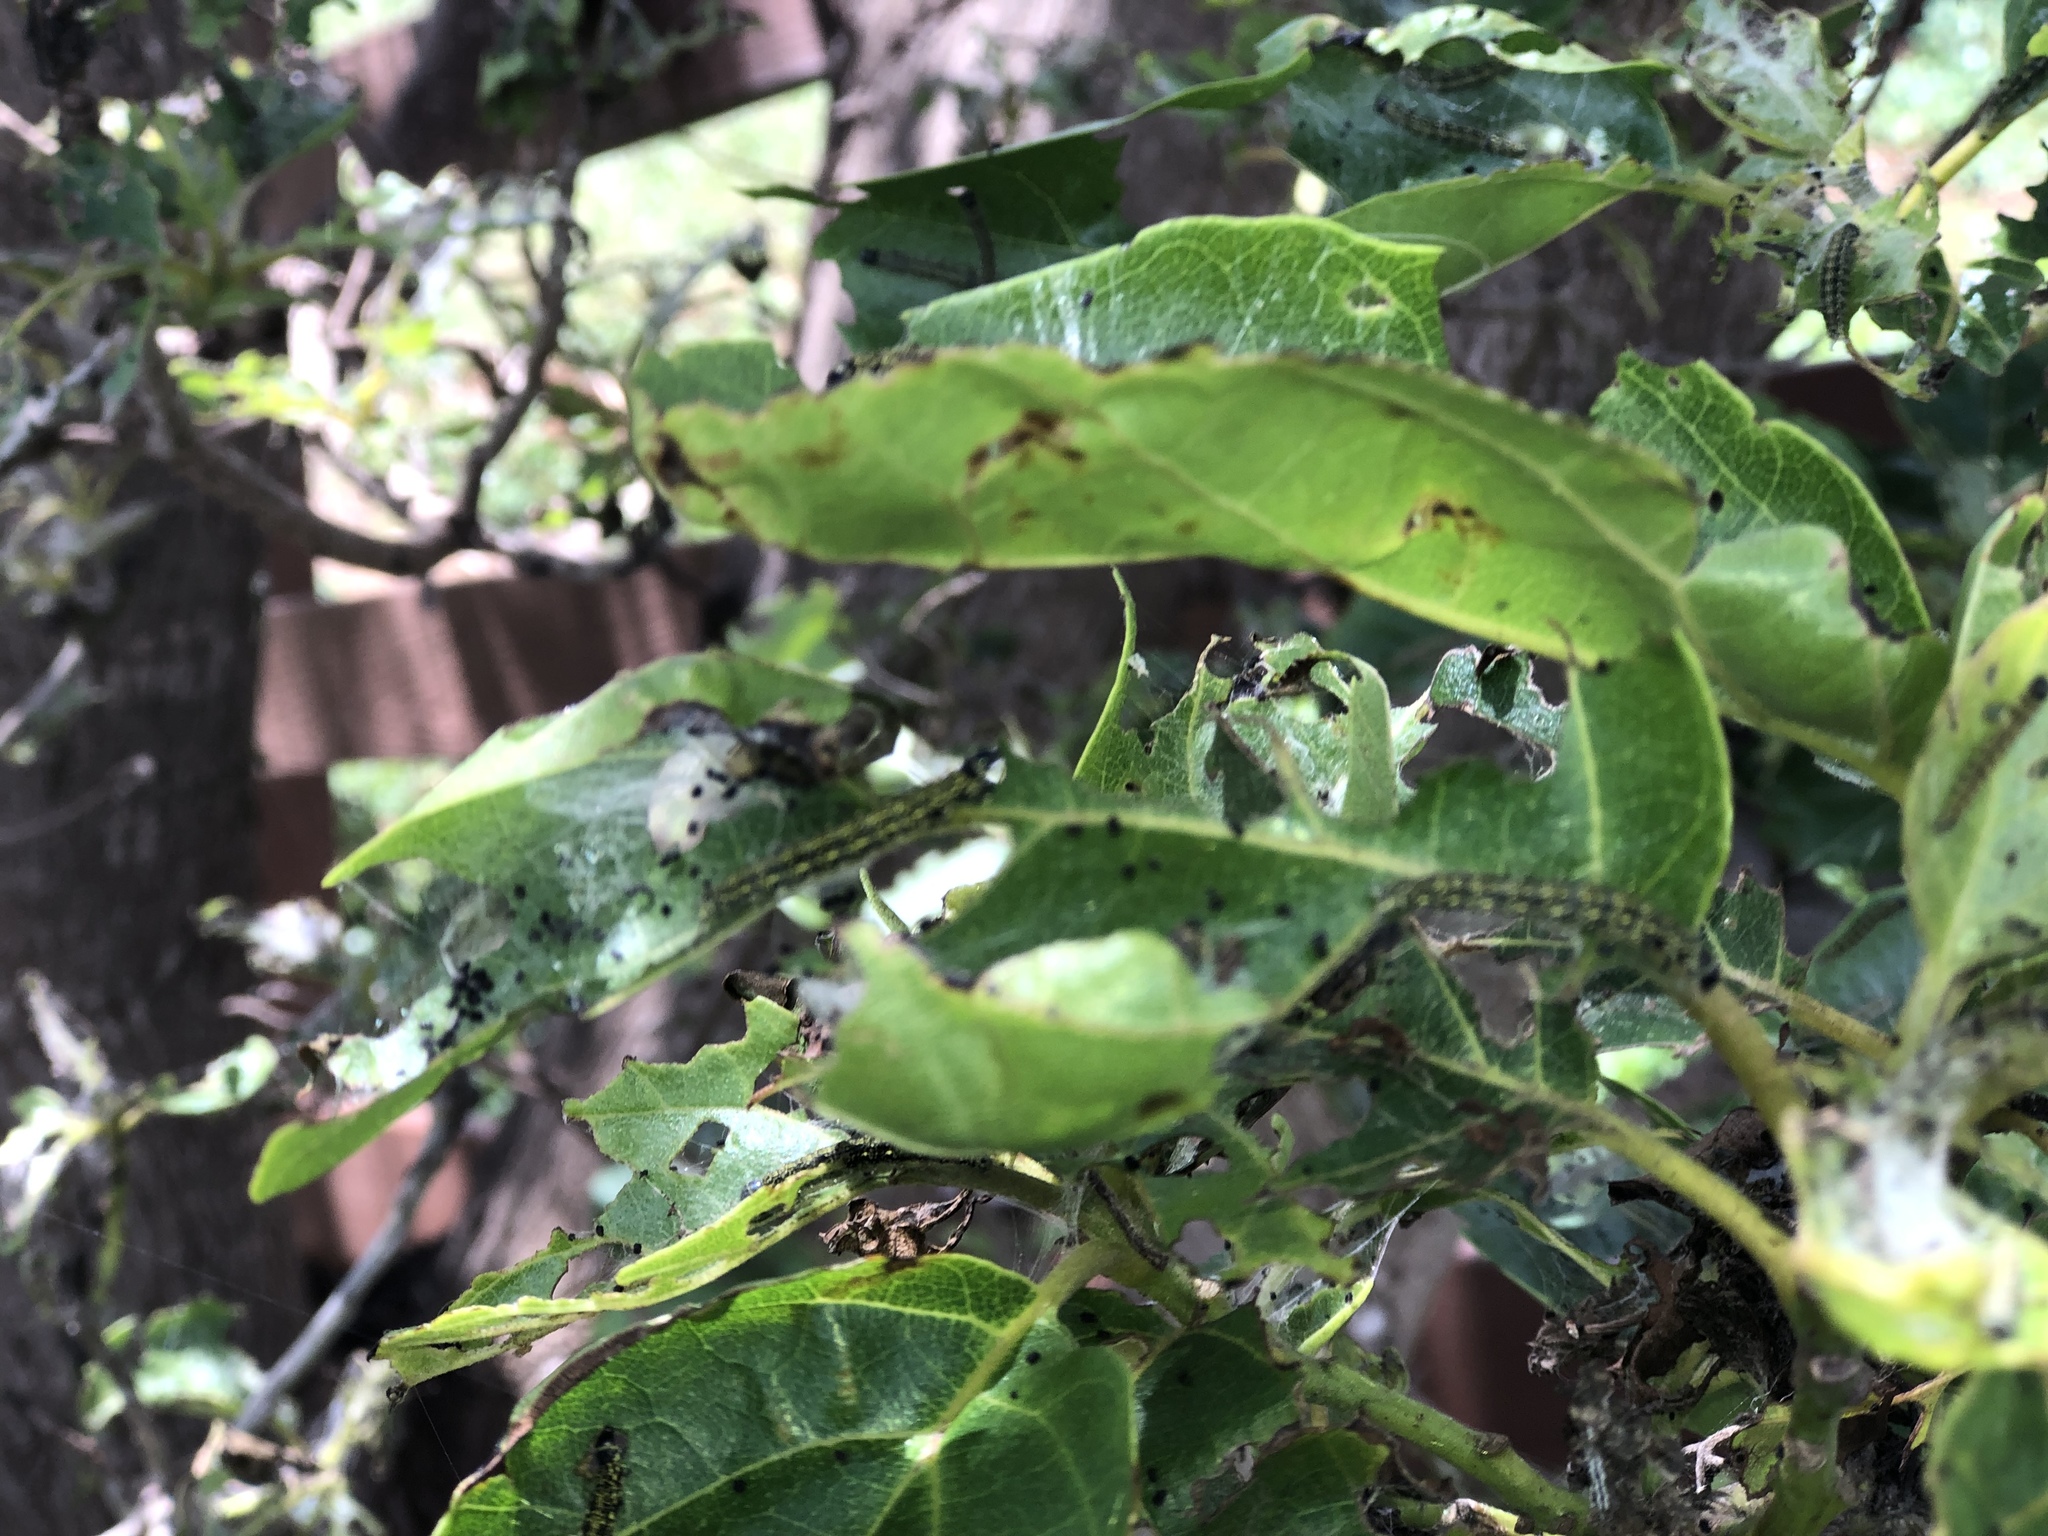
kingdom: Animalia
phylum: Arthropoda
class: Insecta
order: Lepidoptera
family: Ethmiidae
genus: Ethmia
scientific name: Ethmia nigroapicella
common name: Kou leaf worm
